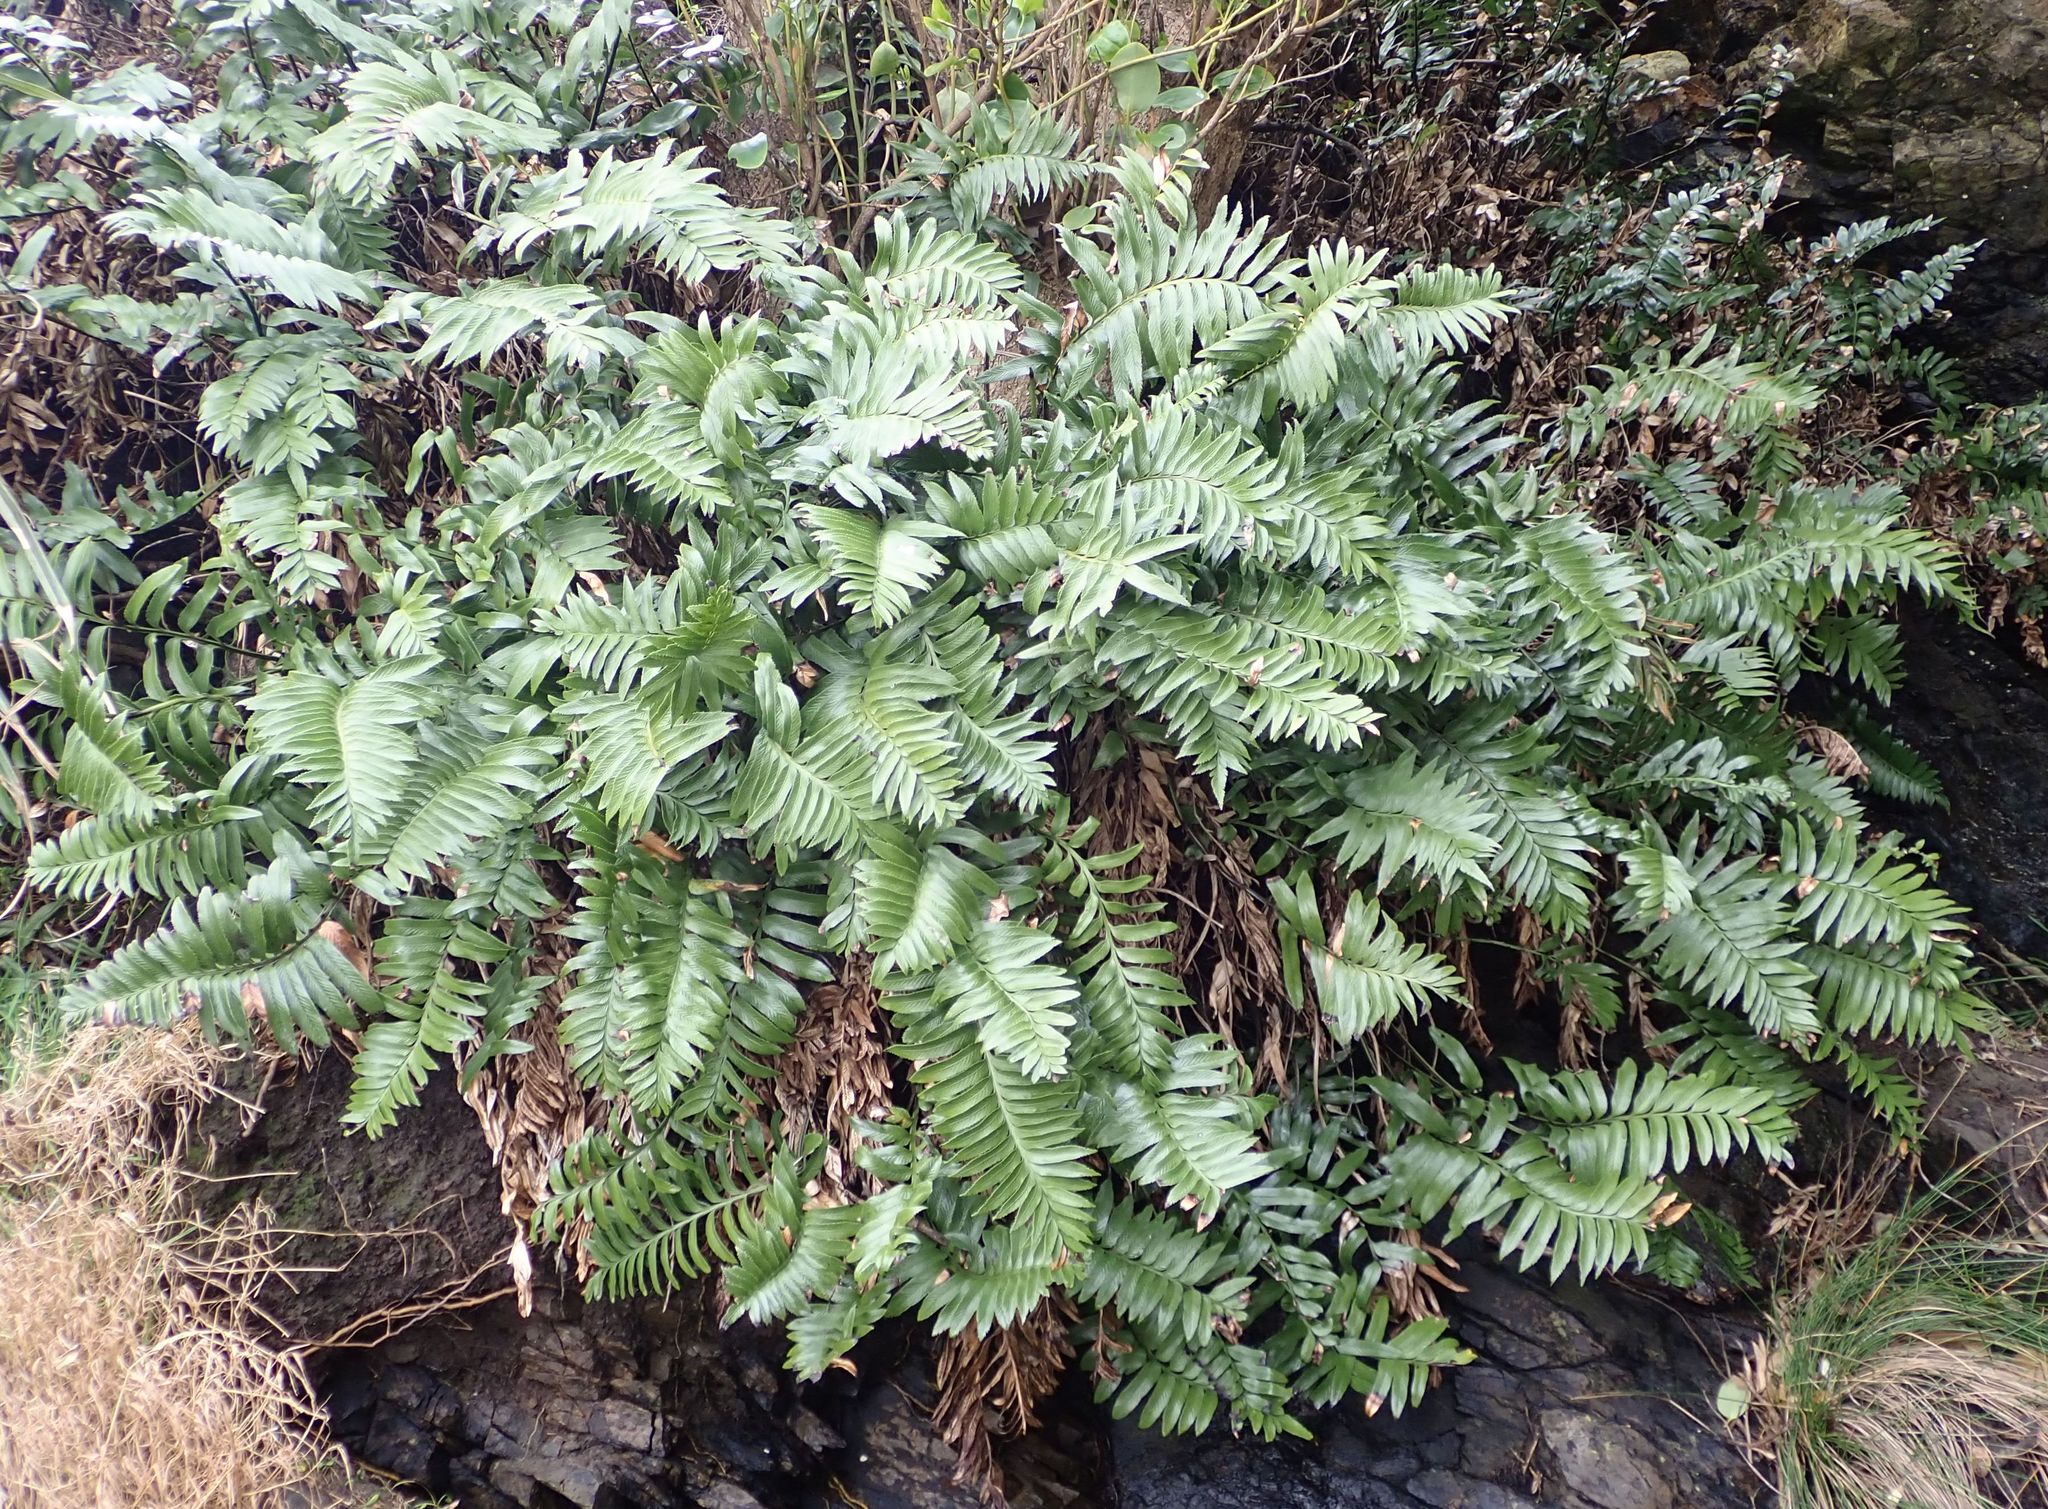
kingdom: Plantae
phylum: Tracheophyta
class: Polypodiopsida
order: Polypodiales
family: Aspleniaceae
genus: Asplenium
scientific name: Asplenium obtusatum
